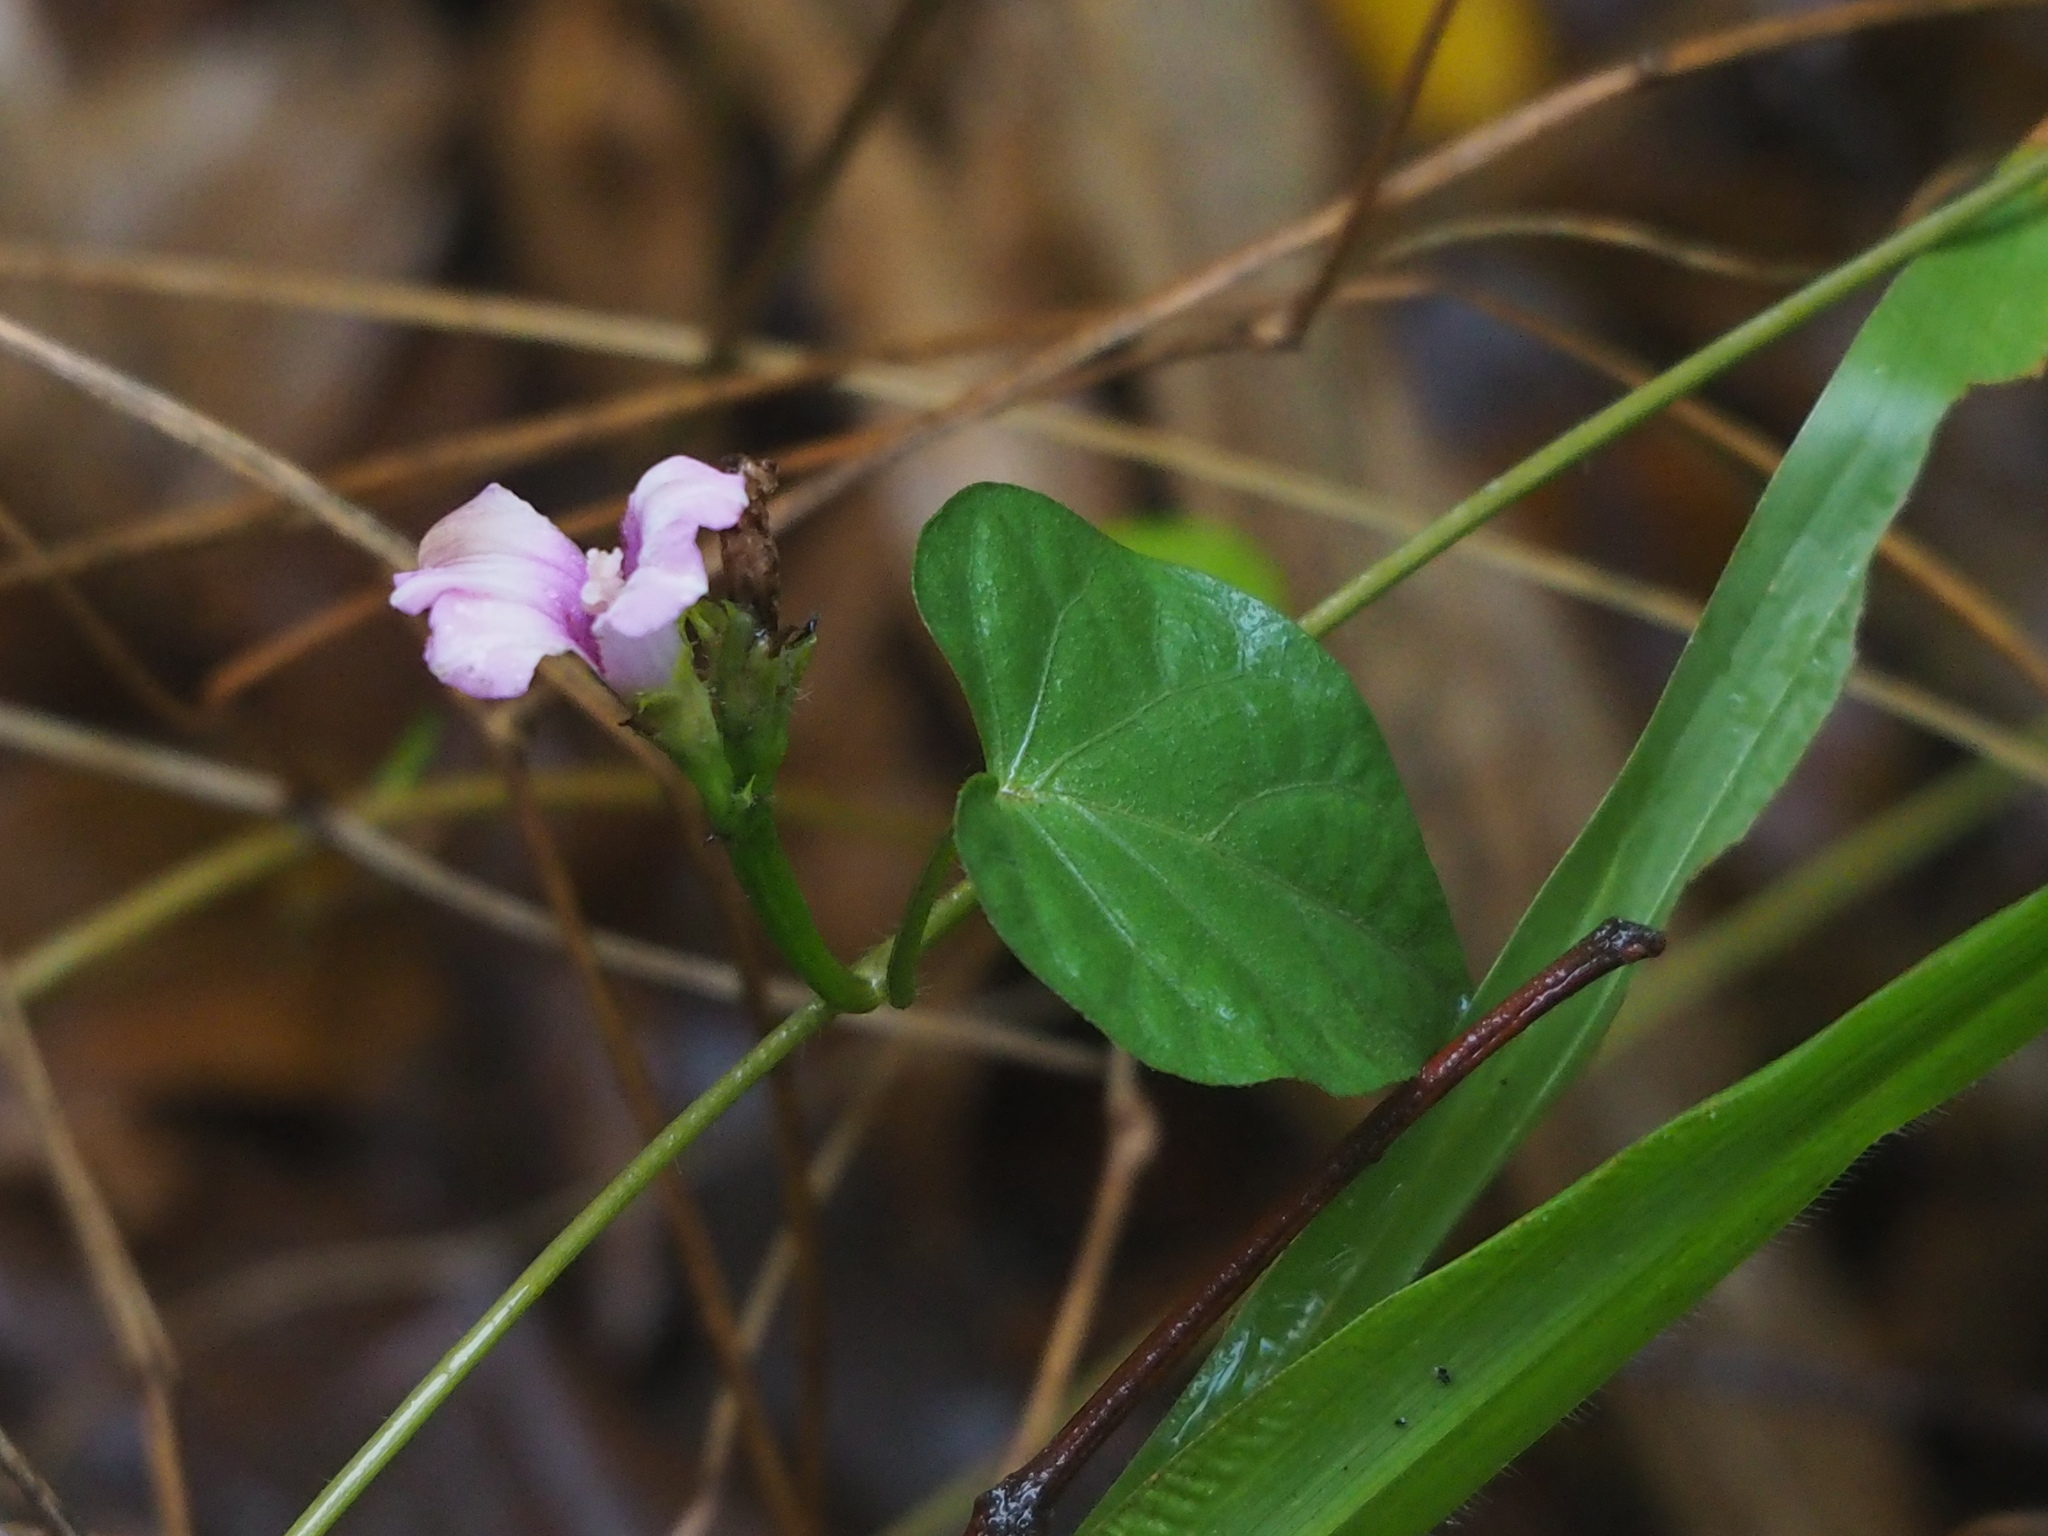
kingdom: Plantae
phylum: Tracheophyta
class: Magnoliopsida
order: Solanales
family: Convolvulaceae
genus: Ipomoea
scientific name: Ipomoea triloba
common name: Little-bell
